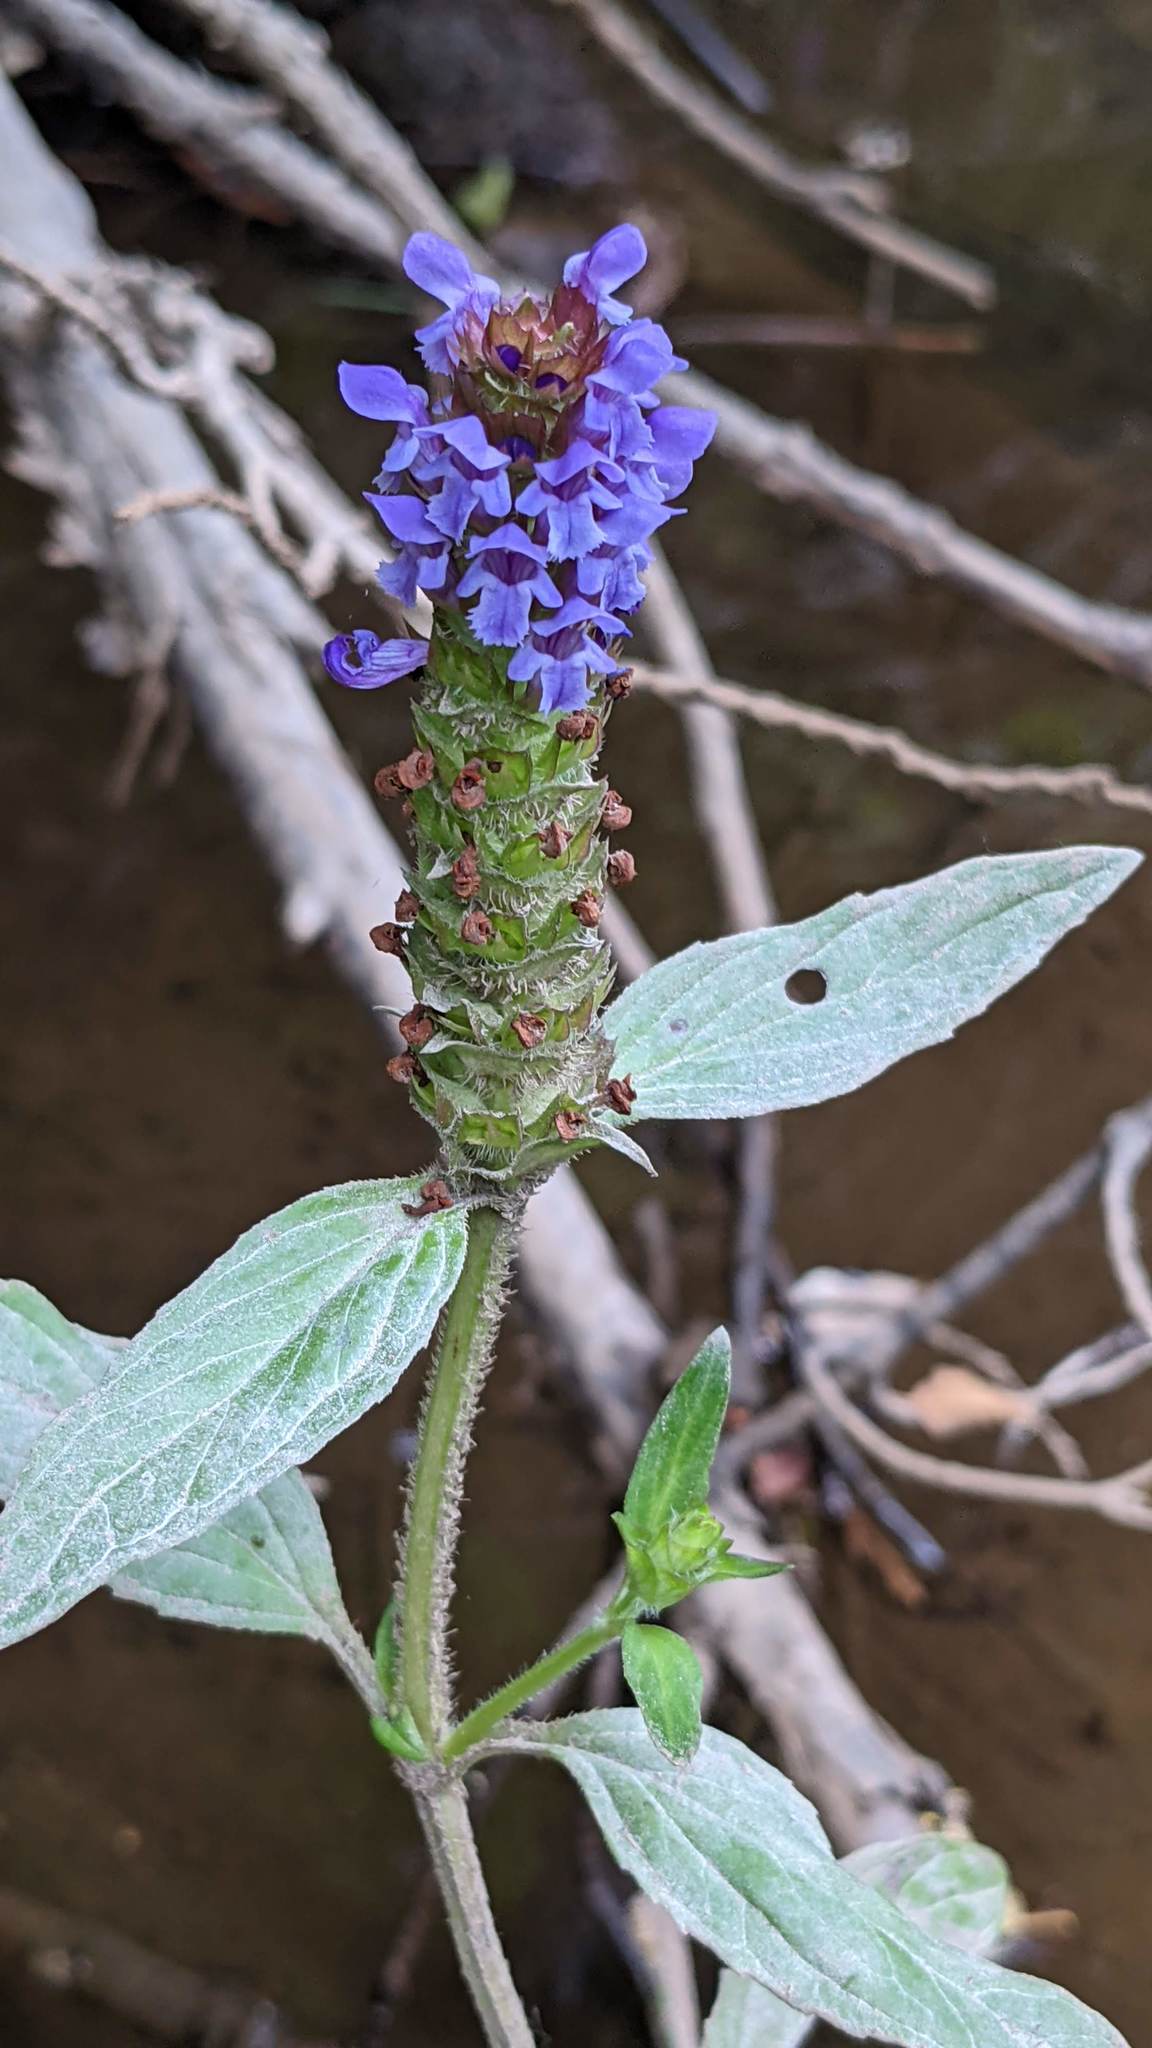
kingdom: Plantae
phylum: Tracheophyta
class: Magnoliopsida
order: Lamiales
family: Lamiaceae
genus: Prunella
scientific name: Prunella vulgaris
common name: Heal-all
